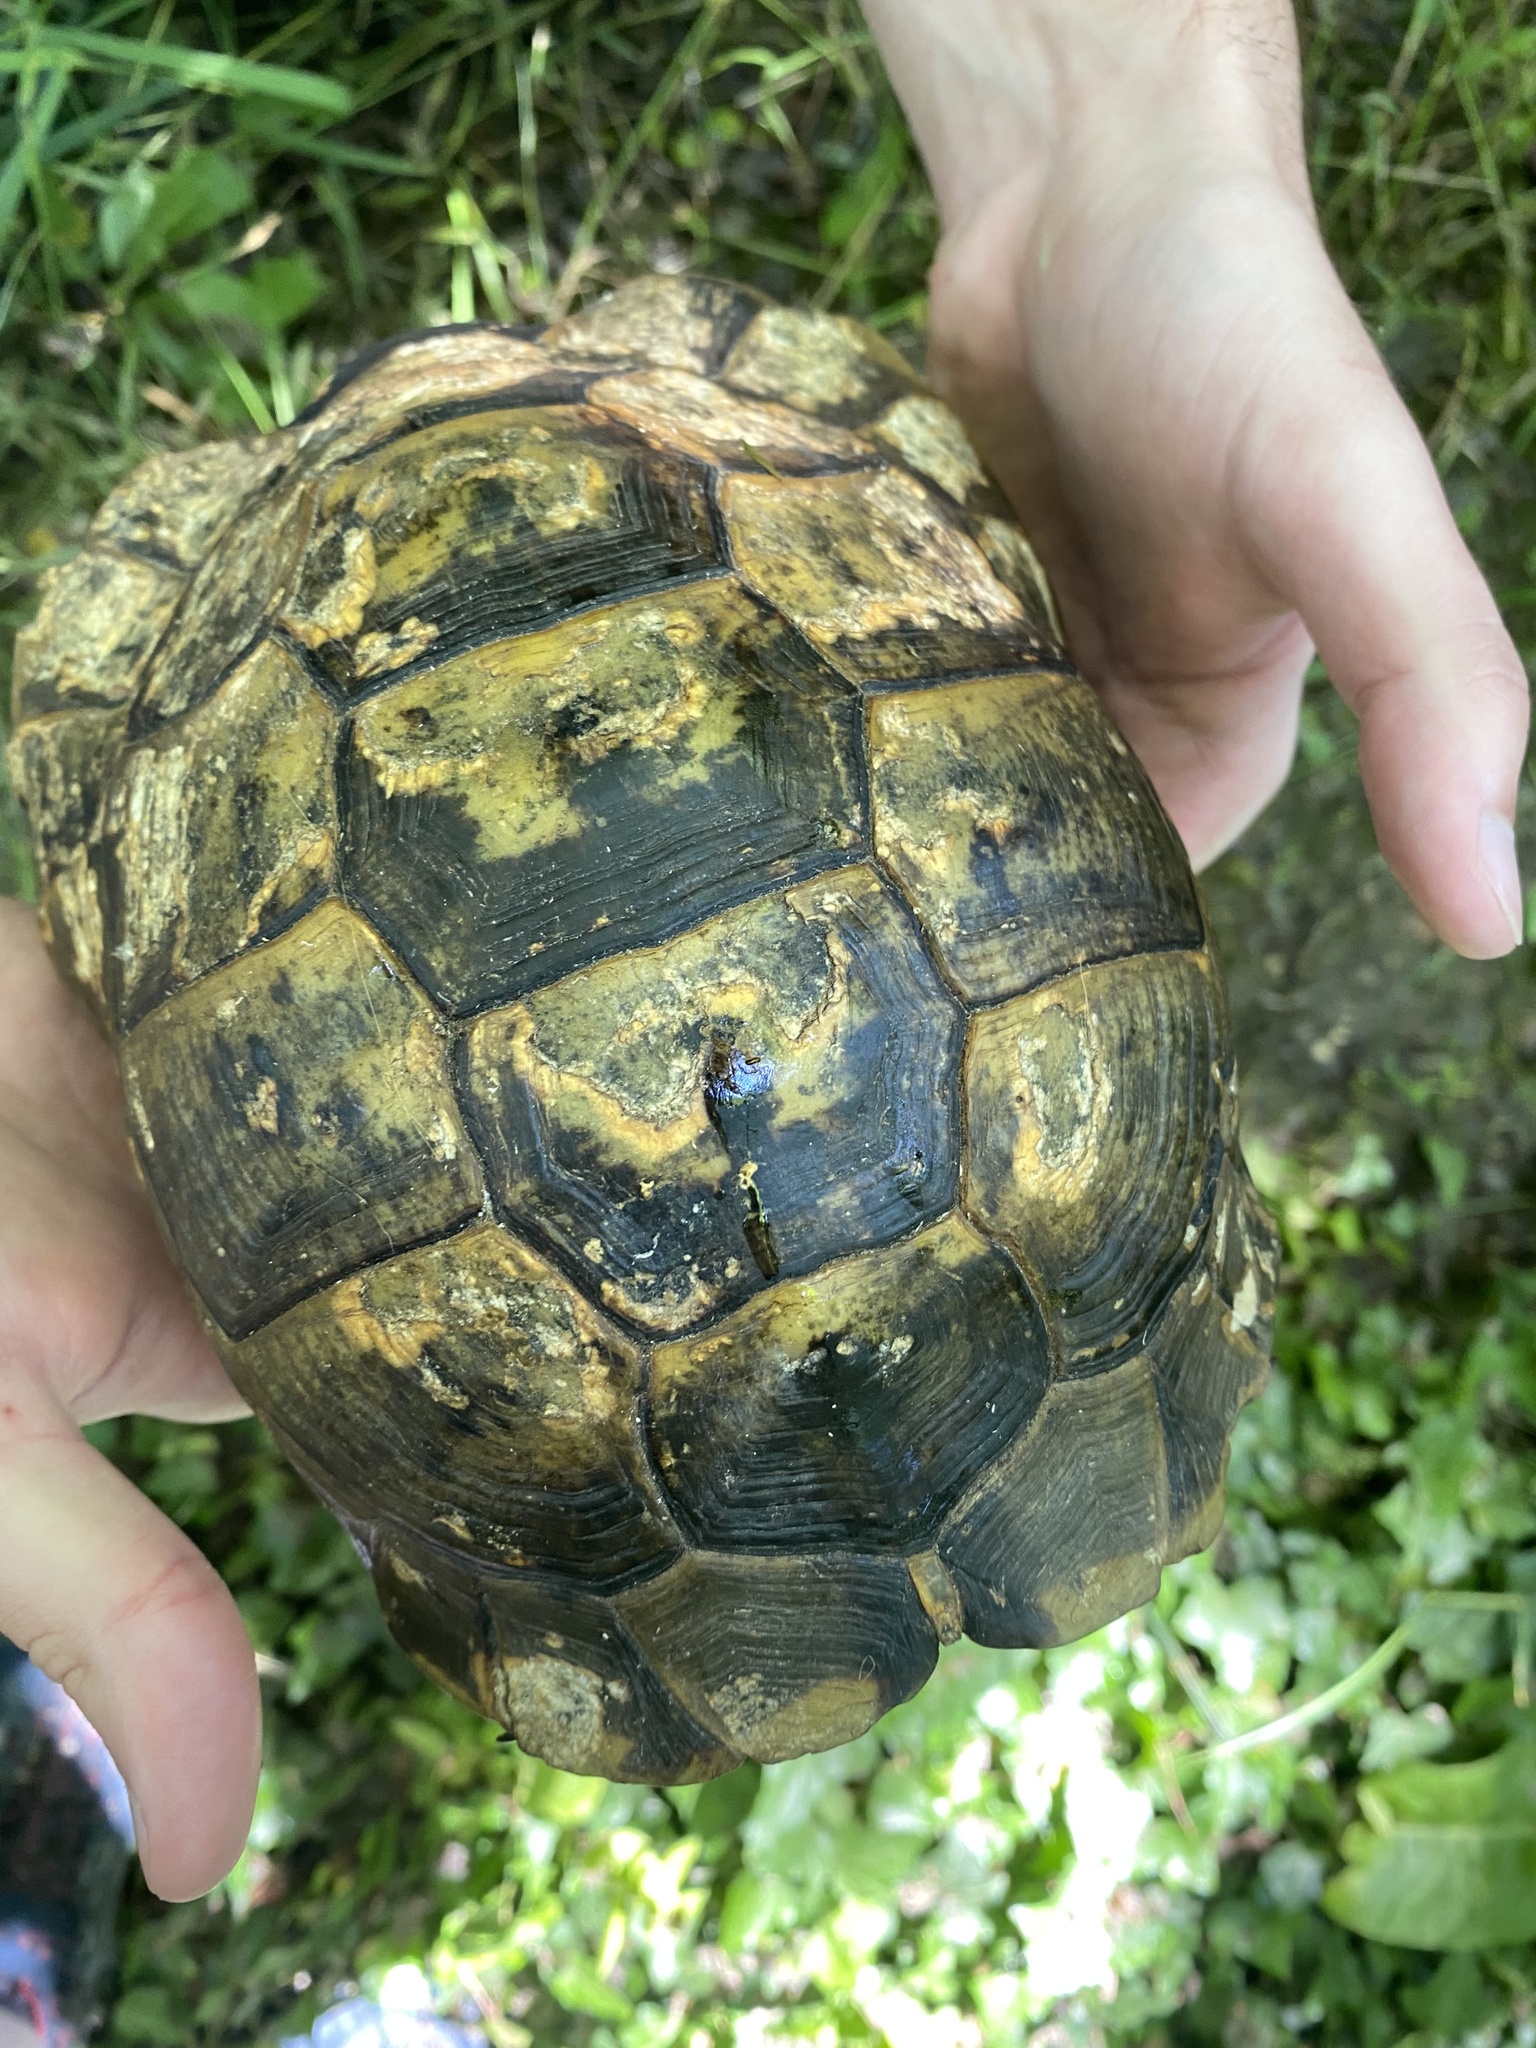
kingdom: Animalia
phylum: Chordata
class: Testudines
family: Testudinidae
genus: Testudo
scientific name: Testudo graeca
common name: Common tortoise
